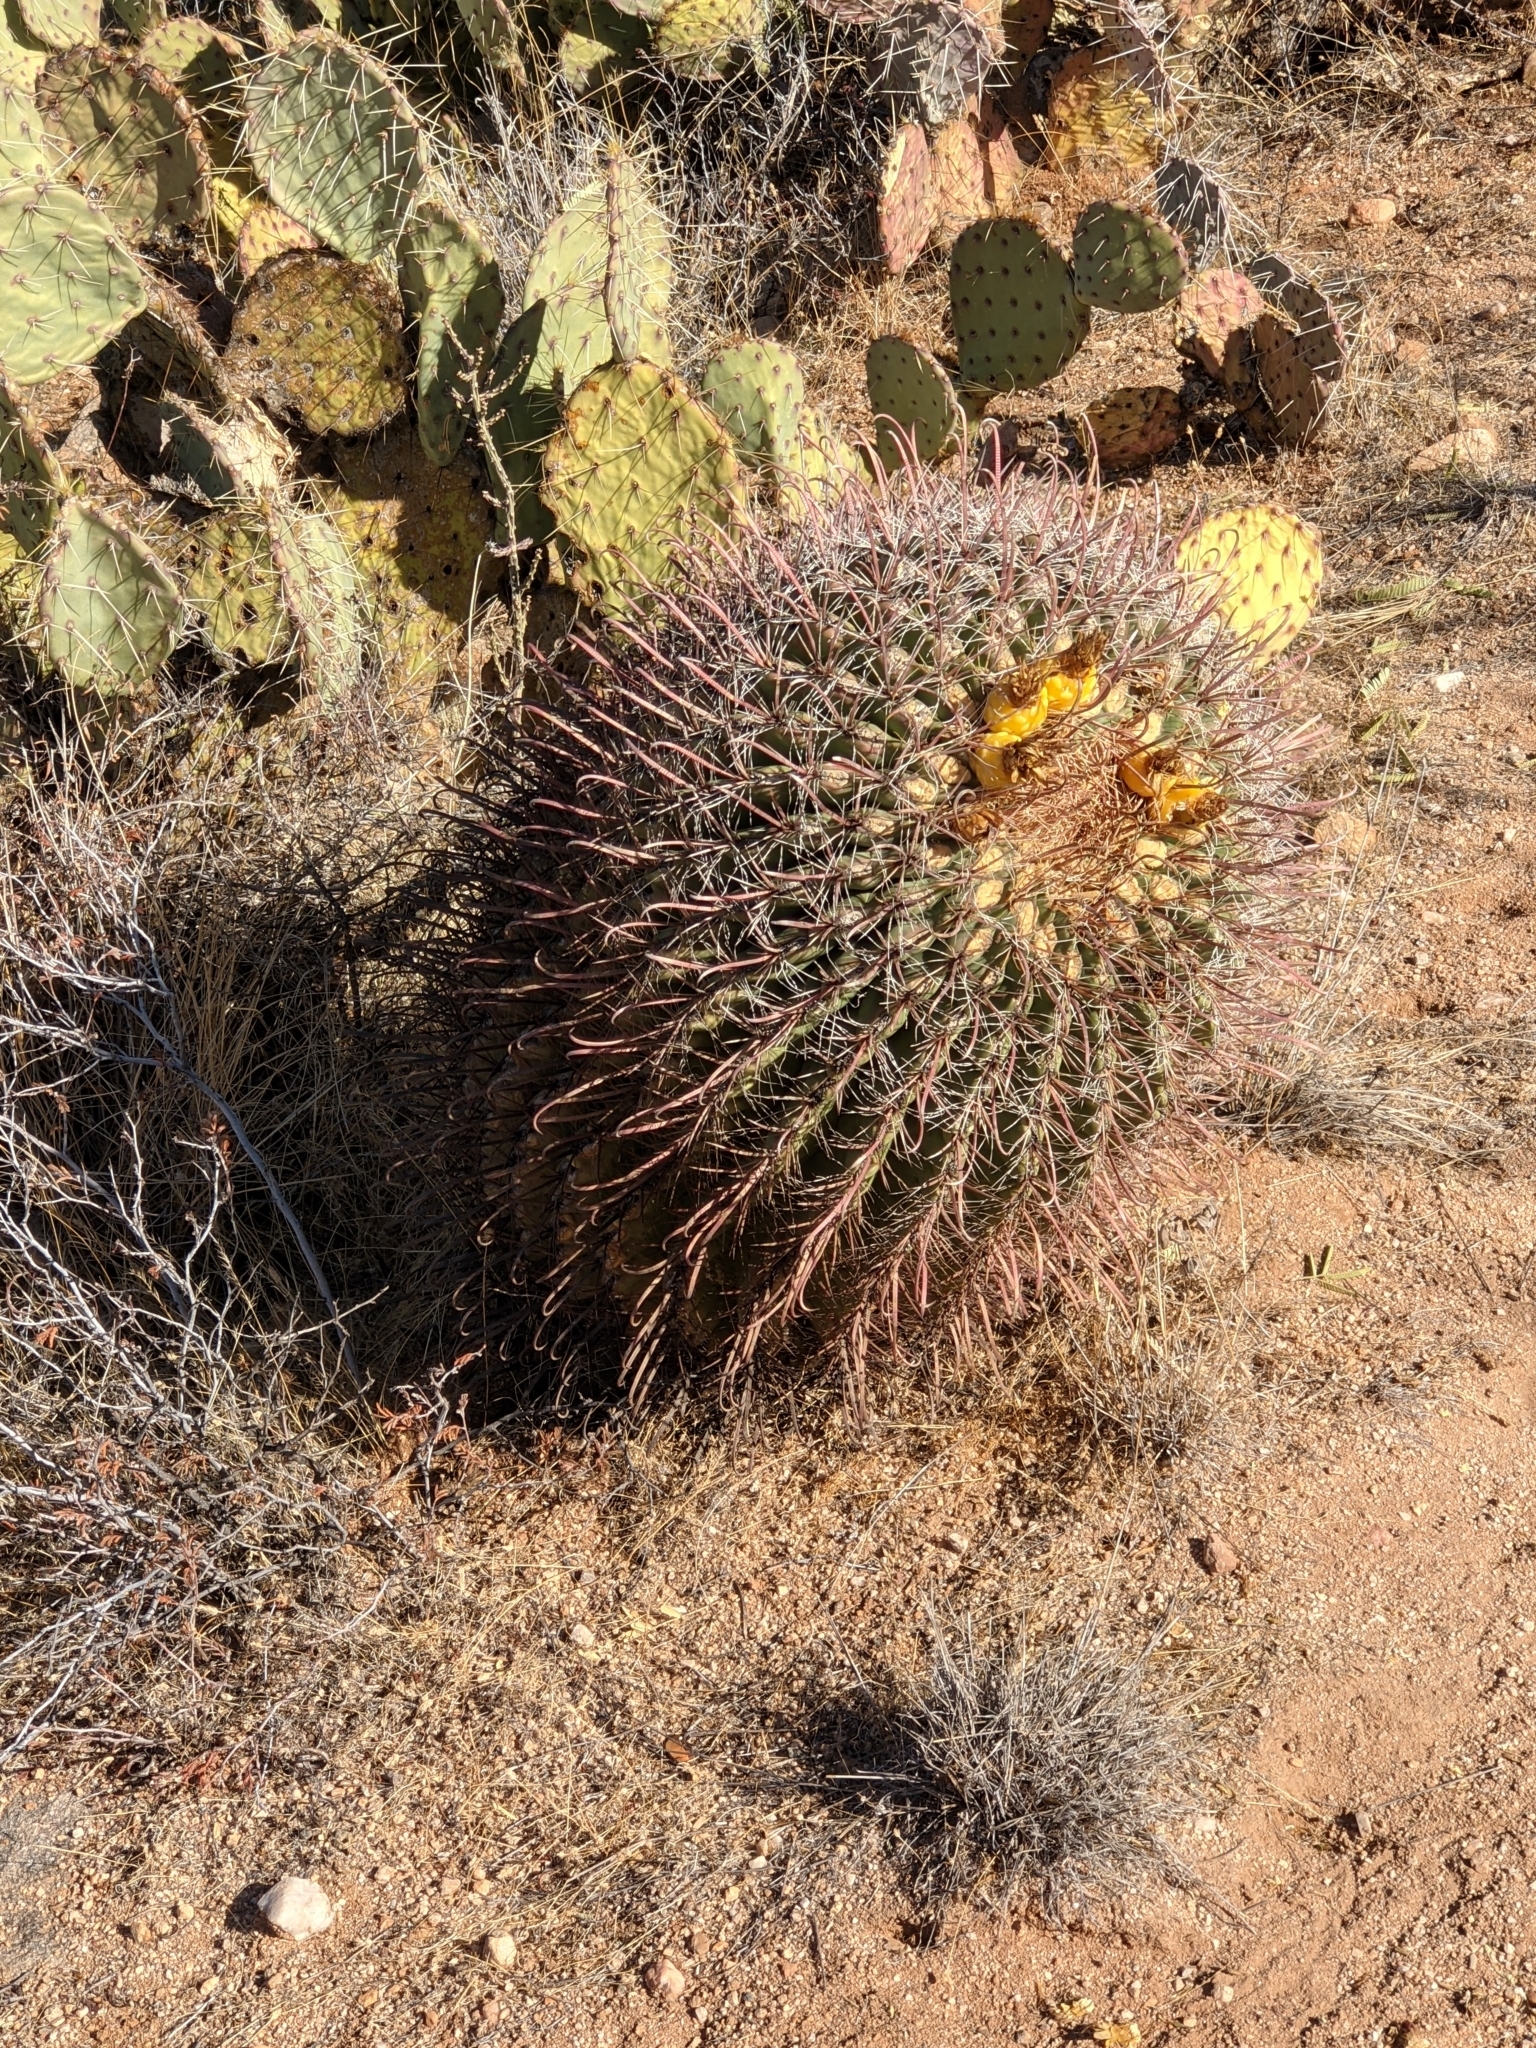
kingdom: Plantae
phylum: Tracheophyta
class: Magnoliopsida
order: Caryophyllales
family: Cactaceae
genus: Ferocactus
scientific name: Ferocactus wislizeni
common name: Candy barrel cactus
